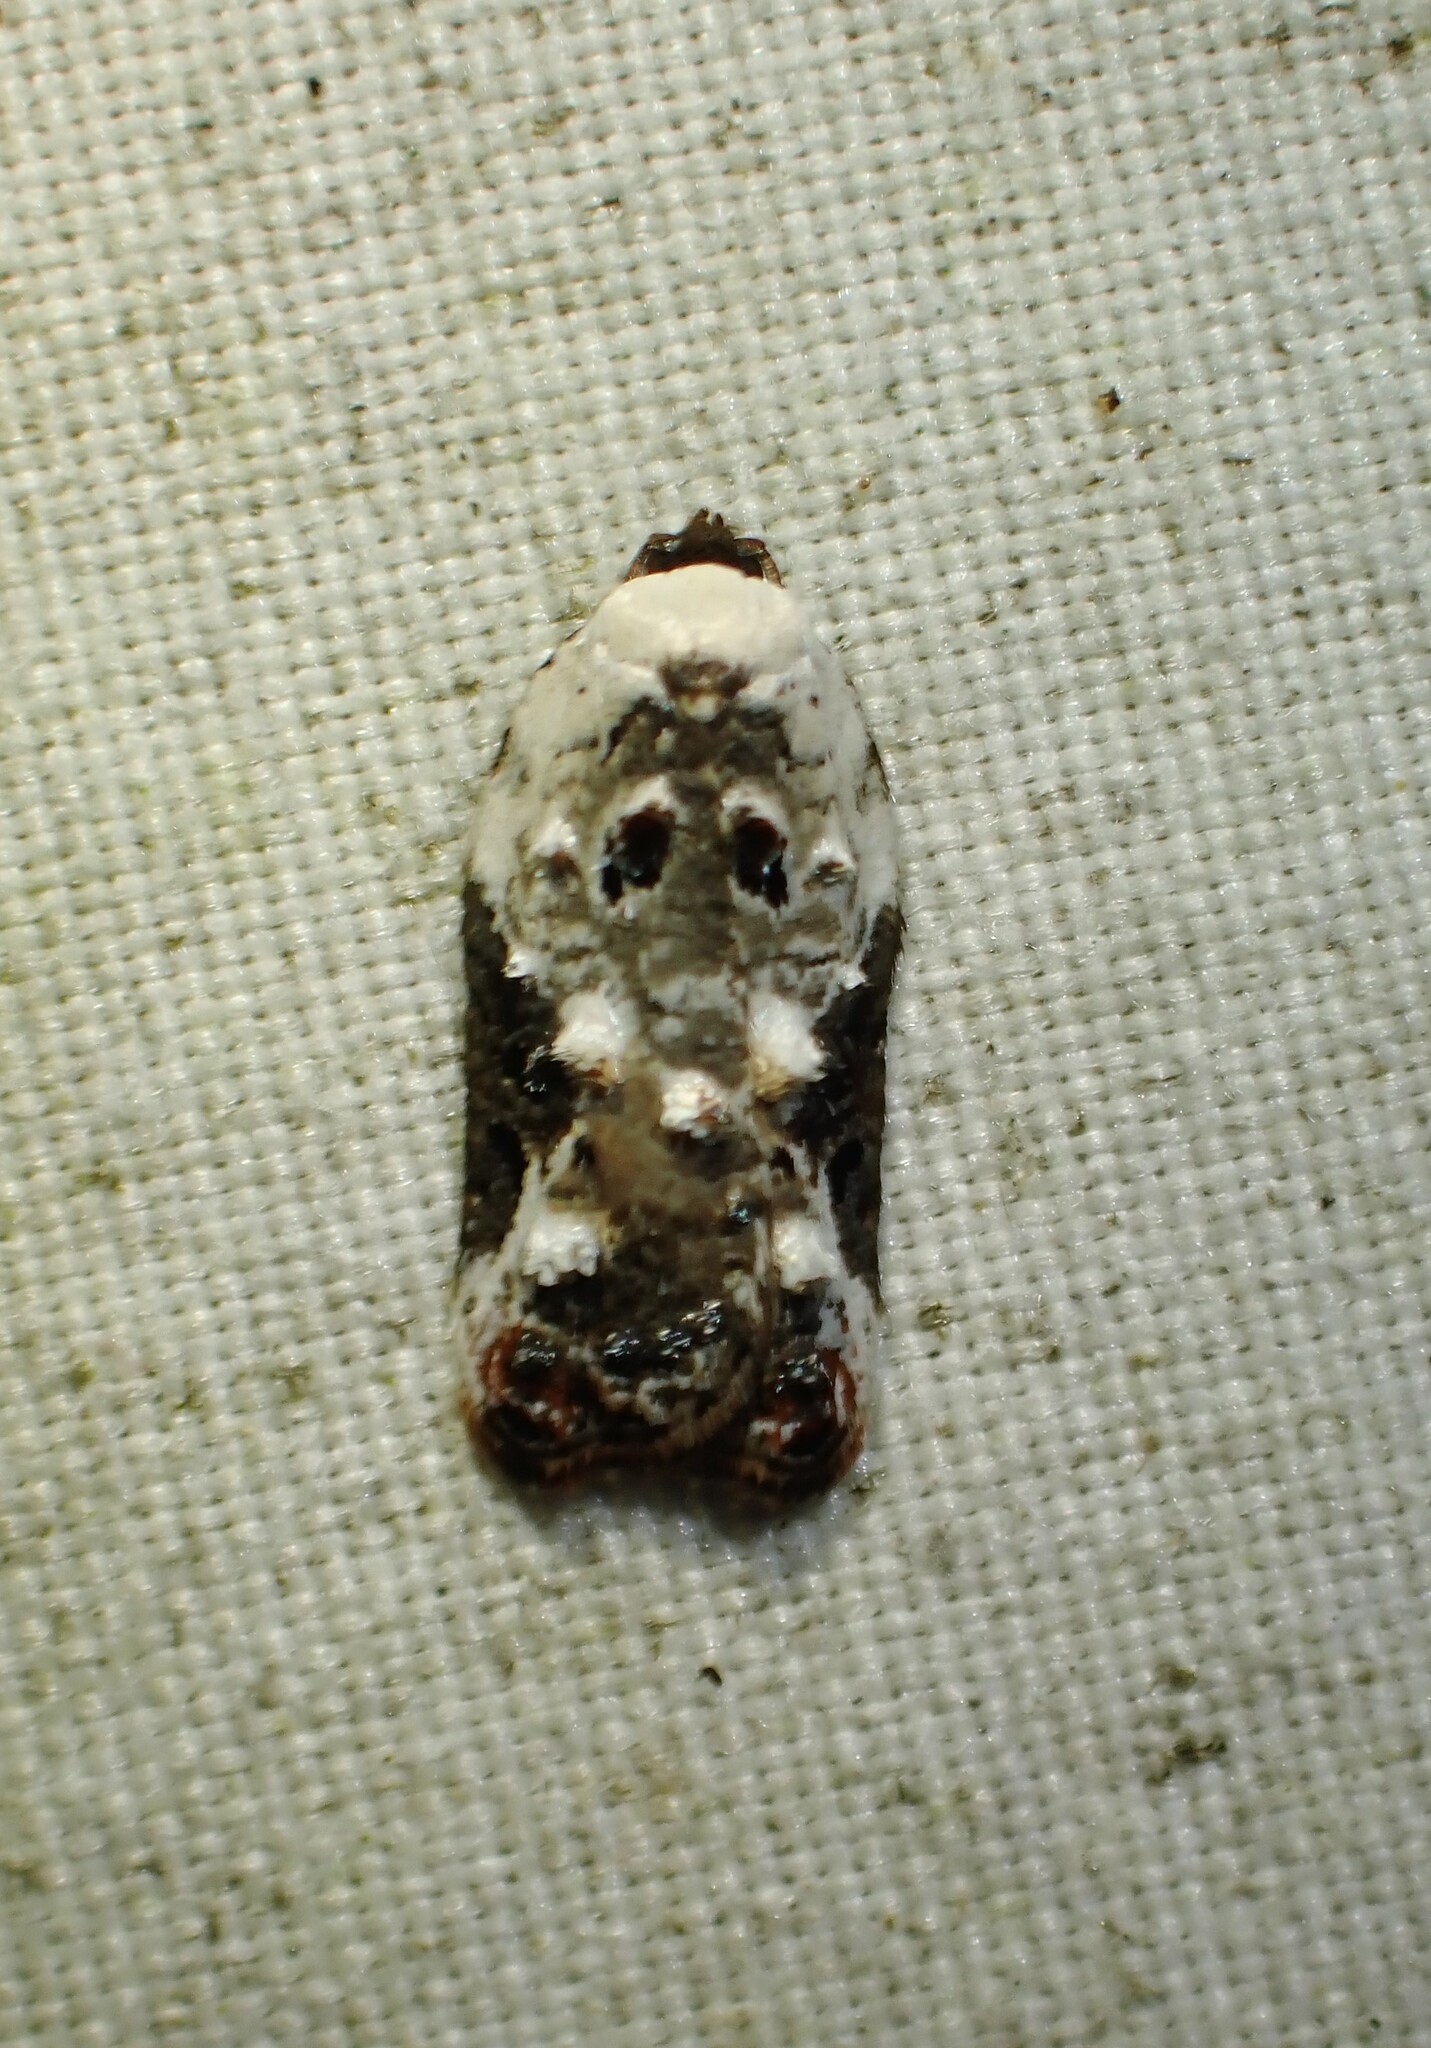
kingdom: Animalia
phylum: Arthropoda
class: Insecta
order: Lepidoptera
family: Tortricidae
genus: Acleris
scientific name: Acleris nivisellana
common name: Snowy-shouldered acleris moth
